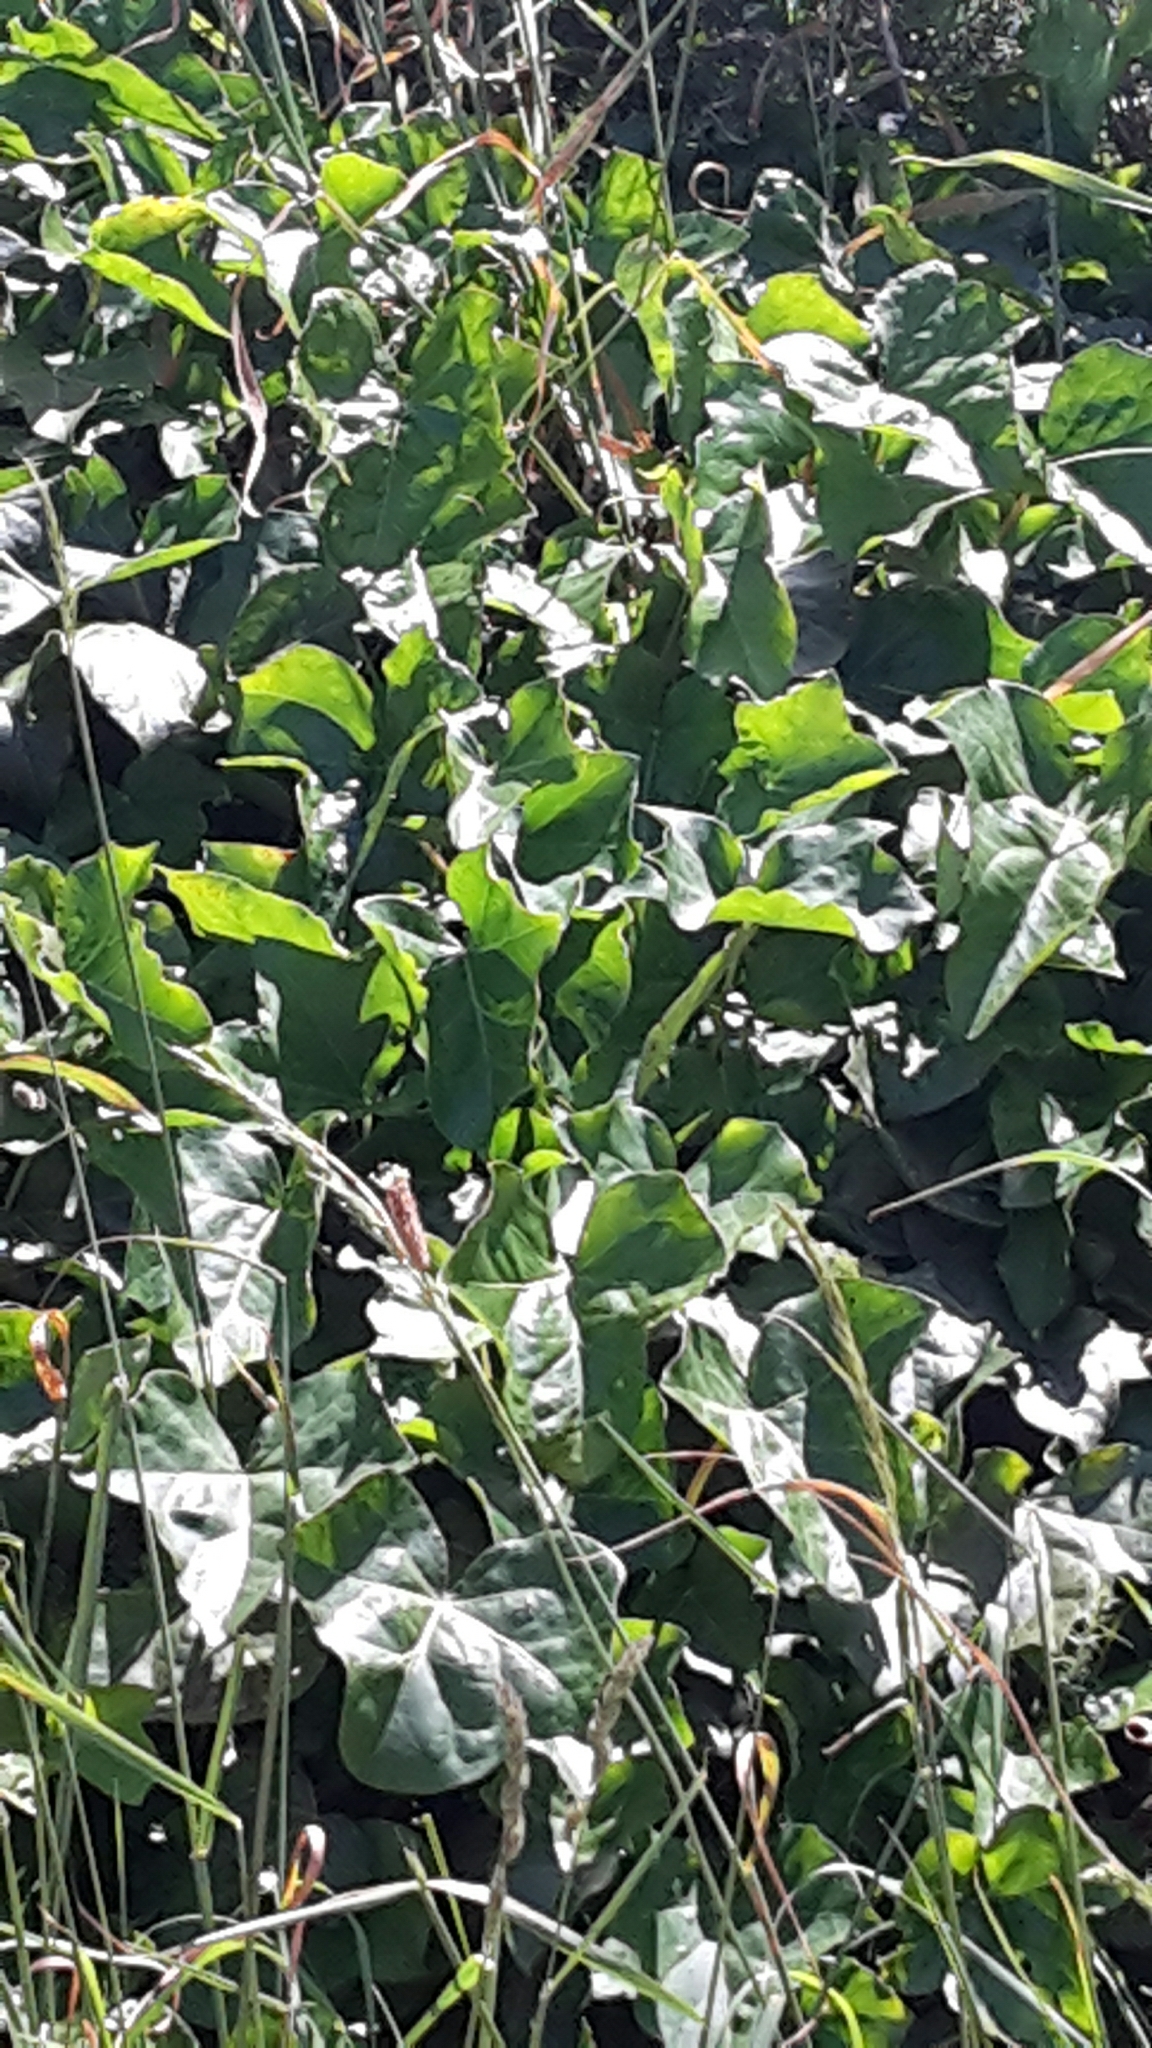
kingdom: Plantae
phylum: Tracheophyta
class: Magnoliopsida
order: Apiales
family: Araliaceae
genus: Hedera
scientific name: Hedera helix
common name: Ivy
